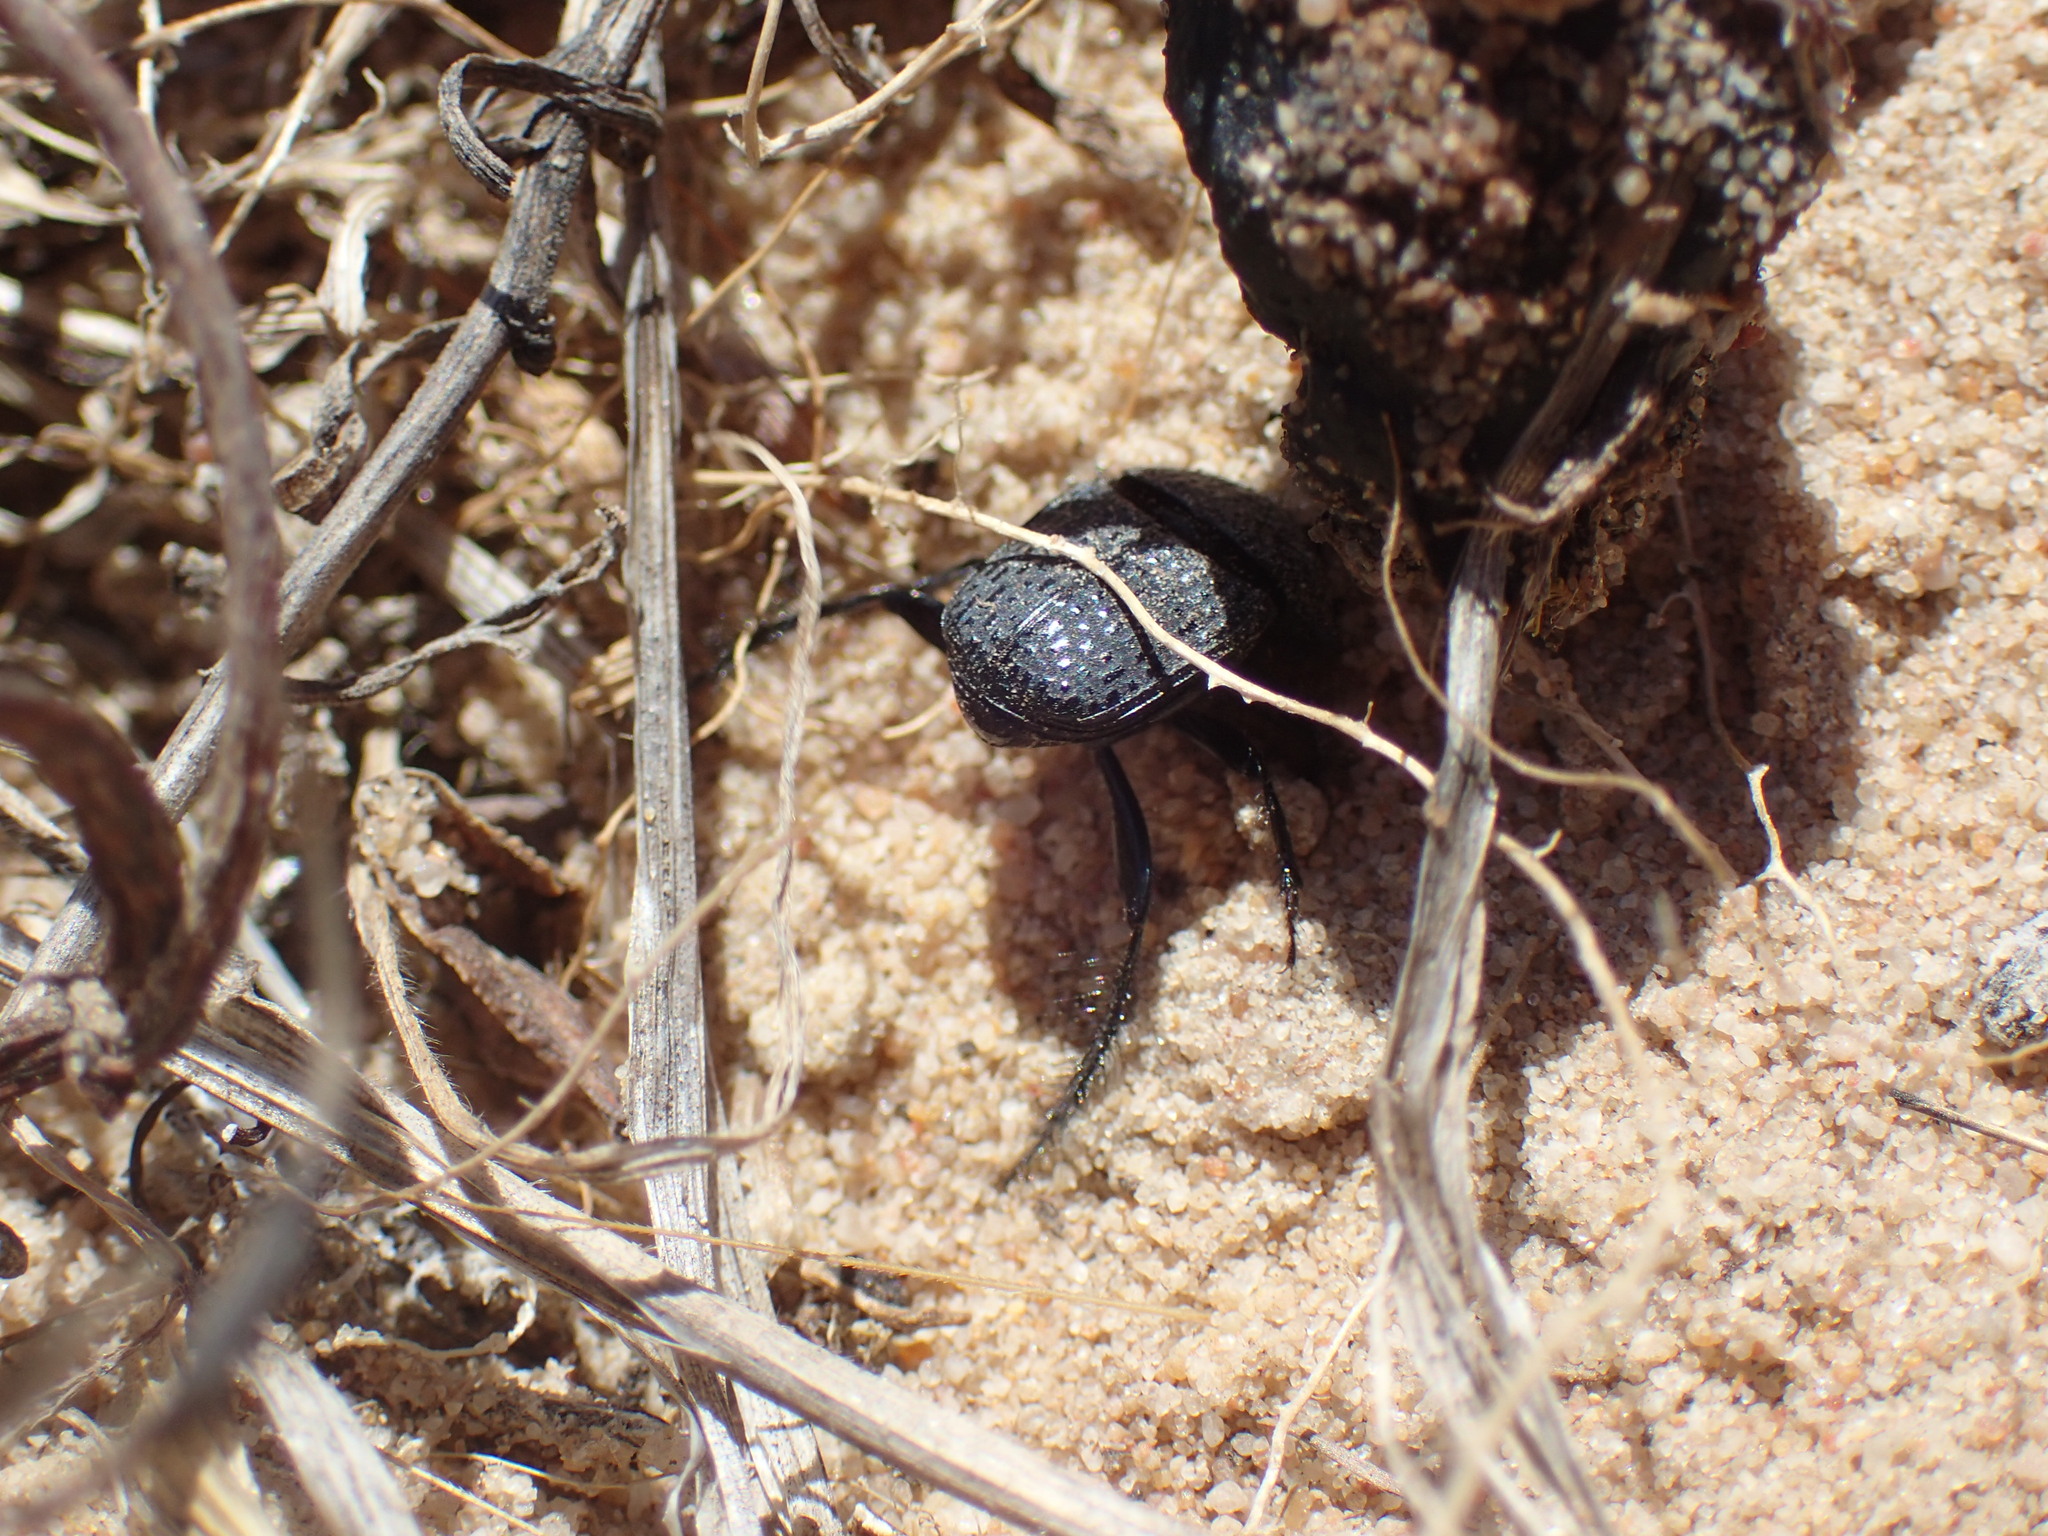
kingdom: Animalia
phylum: Arthropoda
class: Insecta
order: Coleoptera
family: Scarabaeidae
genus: Scarabaeolus
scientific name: Scarabaeolus intricatus
